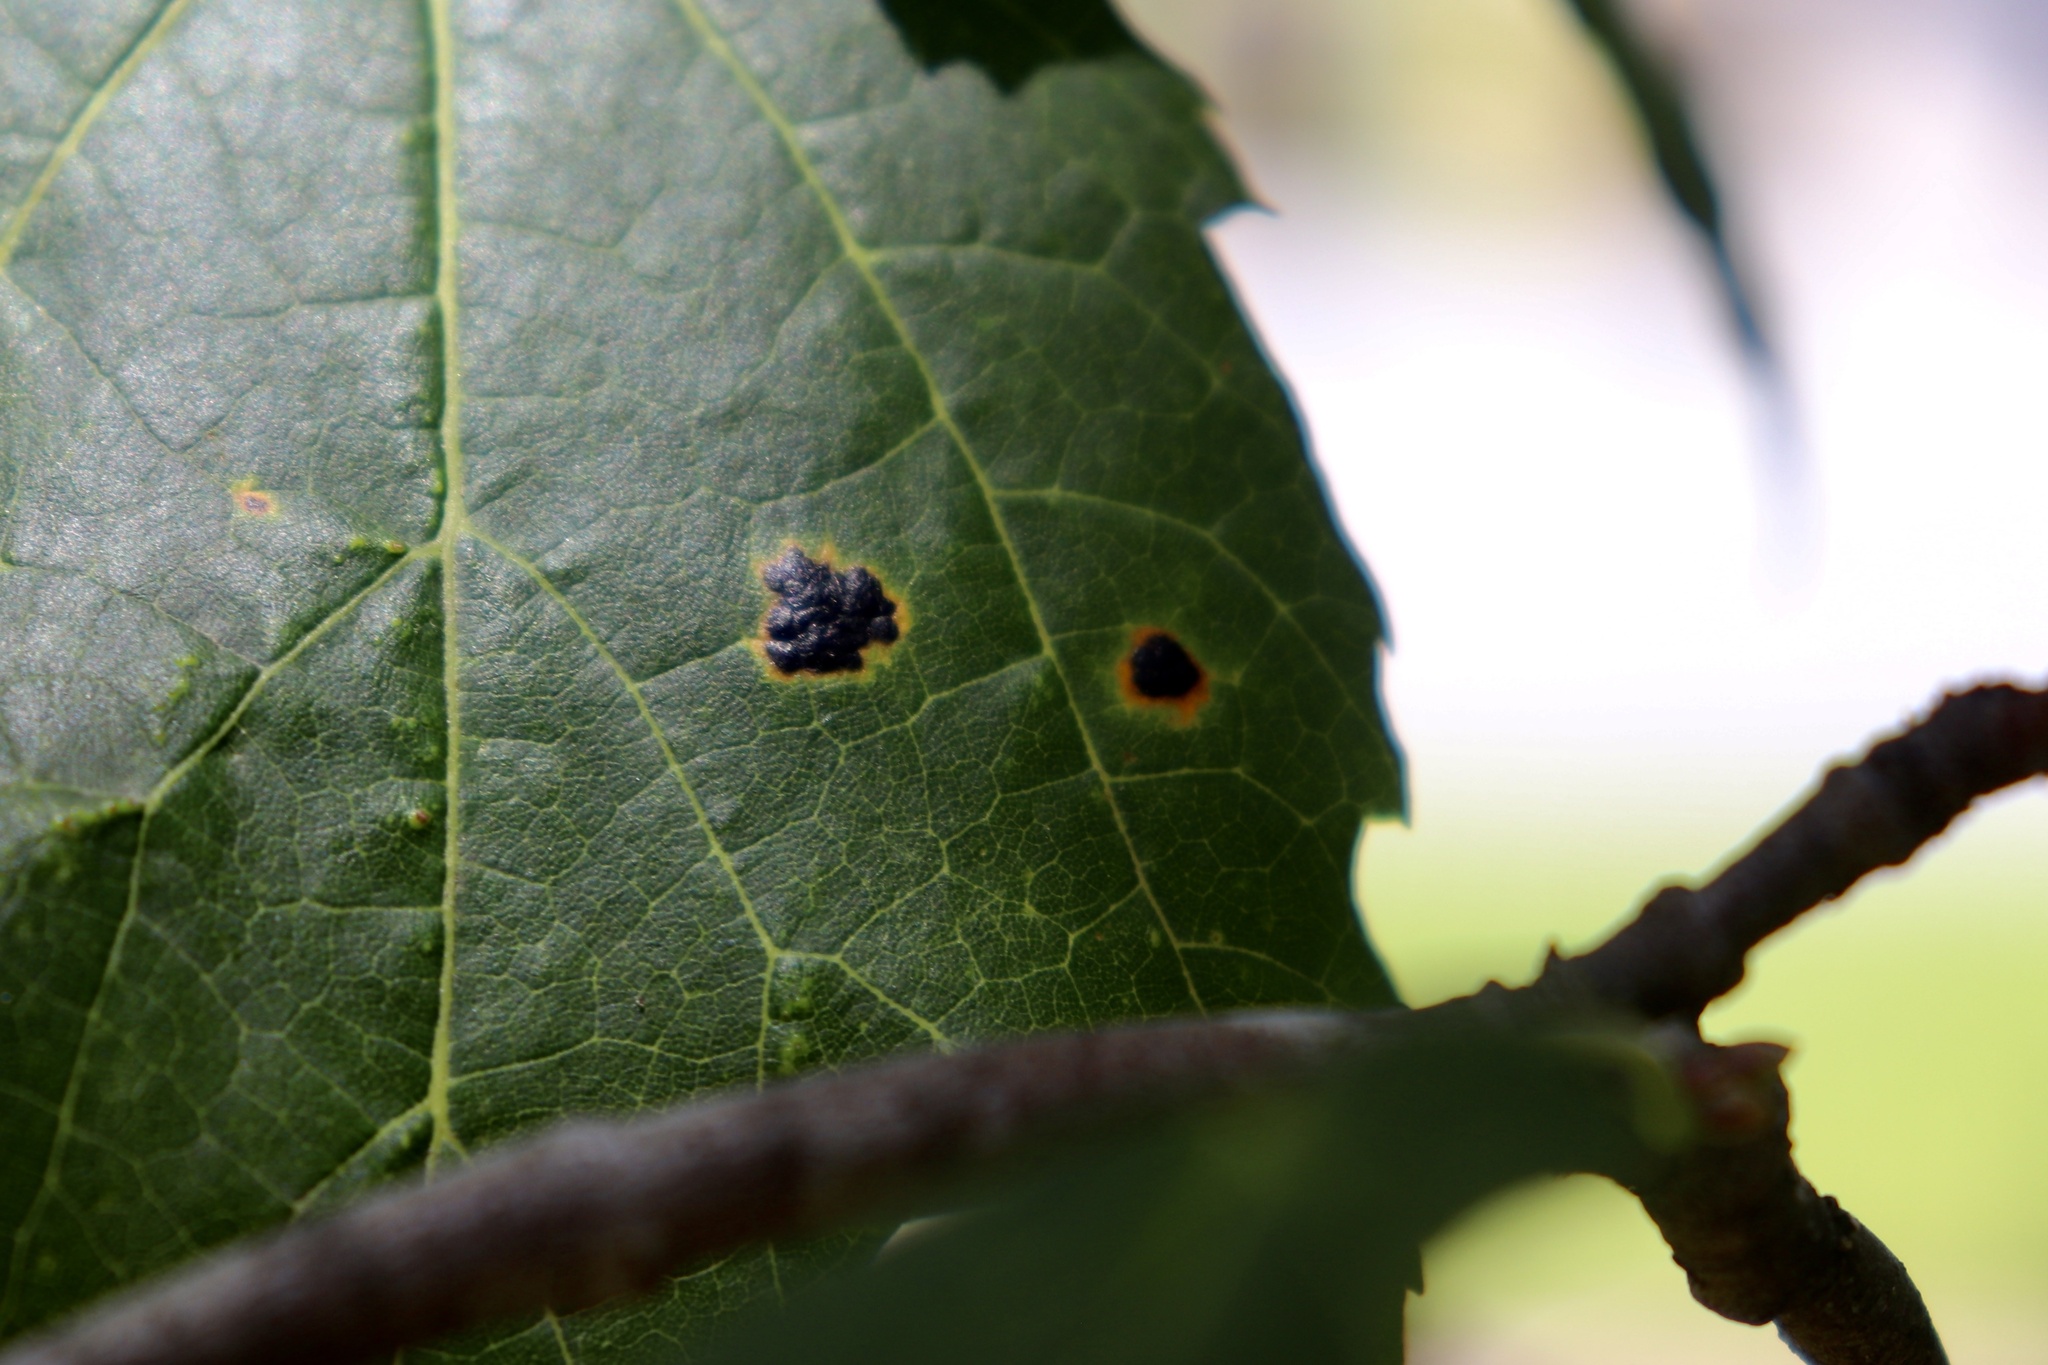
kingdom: Fungi
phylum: Ascomycota
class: Leotiomycetes
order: Rhytismatales
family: Rhytismataceae
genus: Rhytisma
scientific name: Rhytisma americanum
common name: American tar spot
